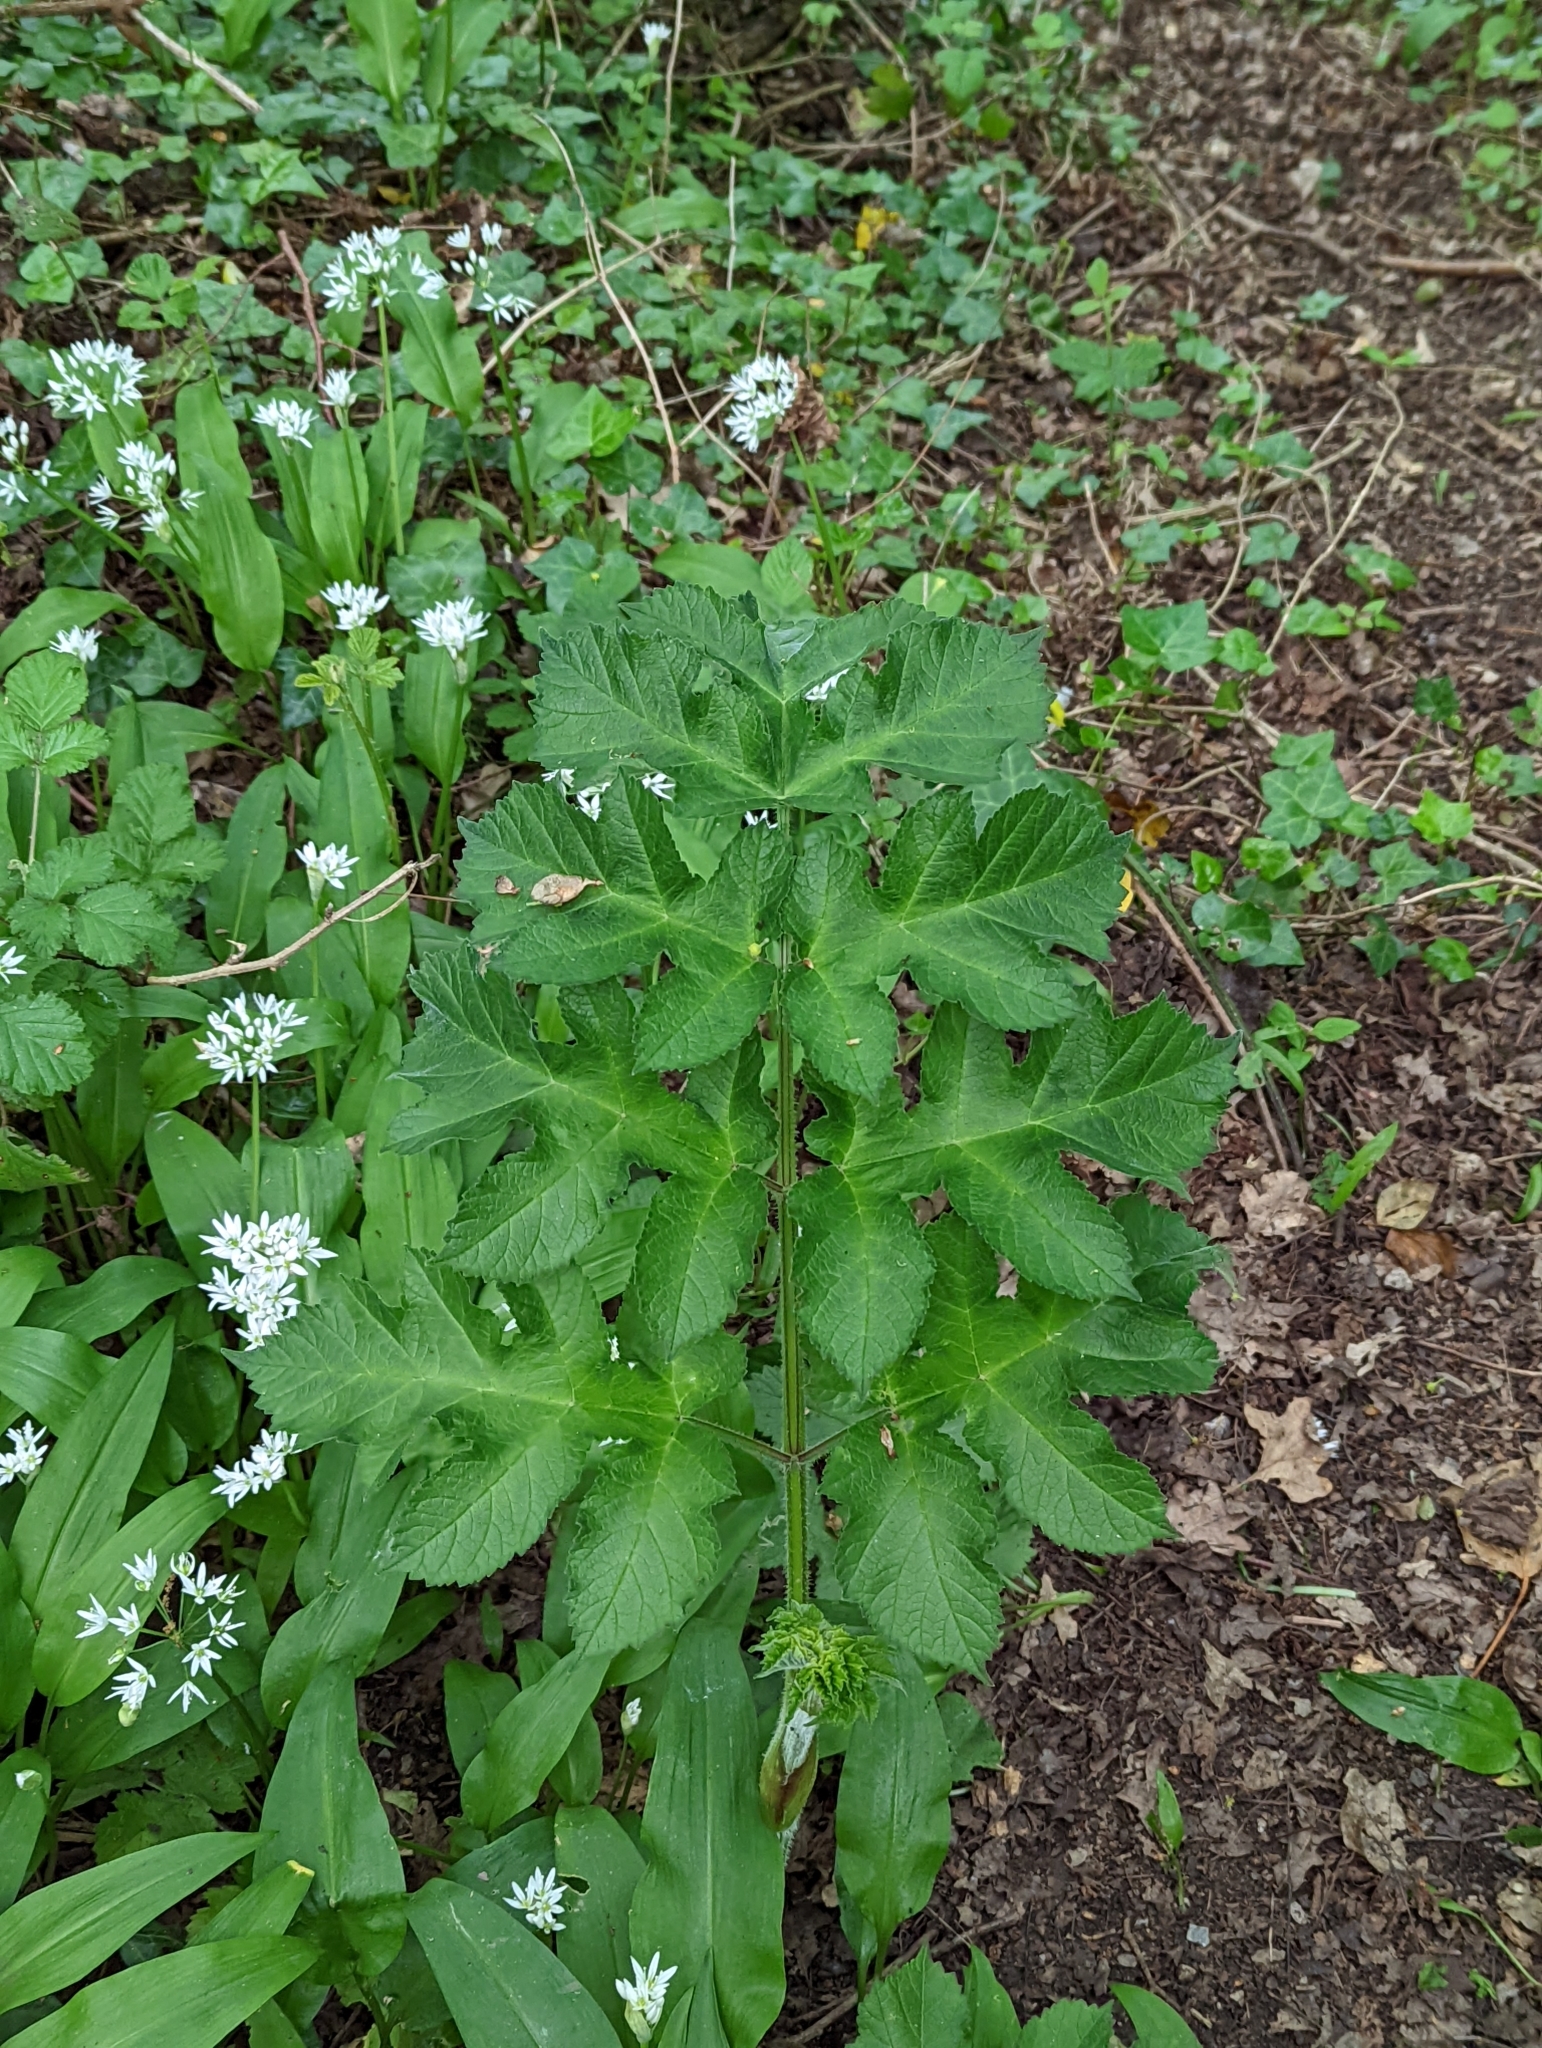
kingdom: Plantae
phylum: Tracheophyta
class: Magnoliopsida
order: Apiales
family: Apiaceae
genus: Heracleum
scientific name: Heracleum sphondylium
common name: Hogweed
